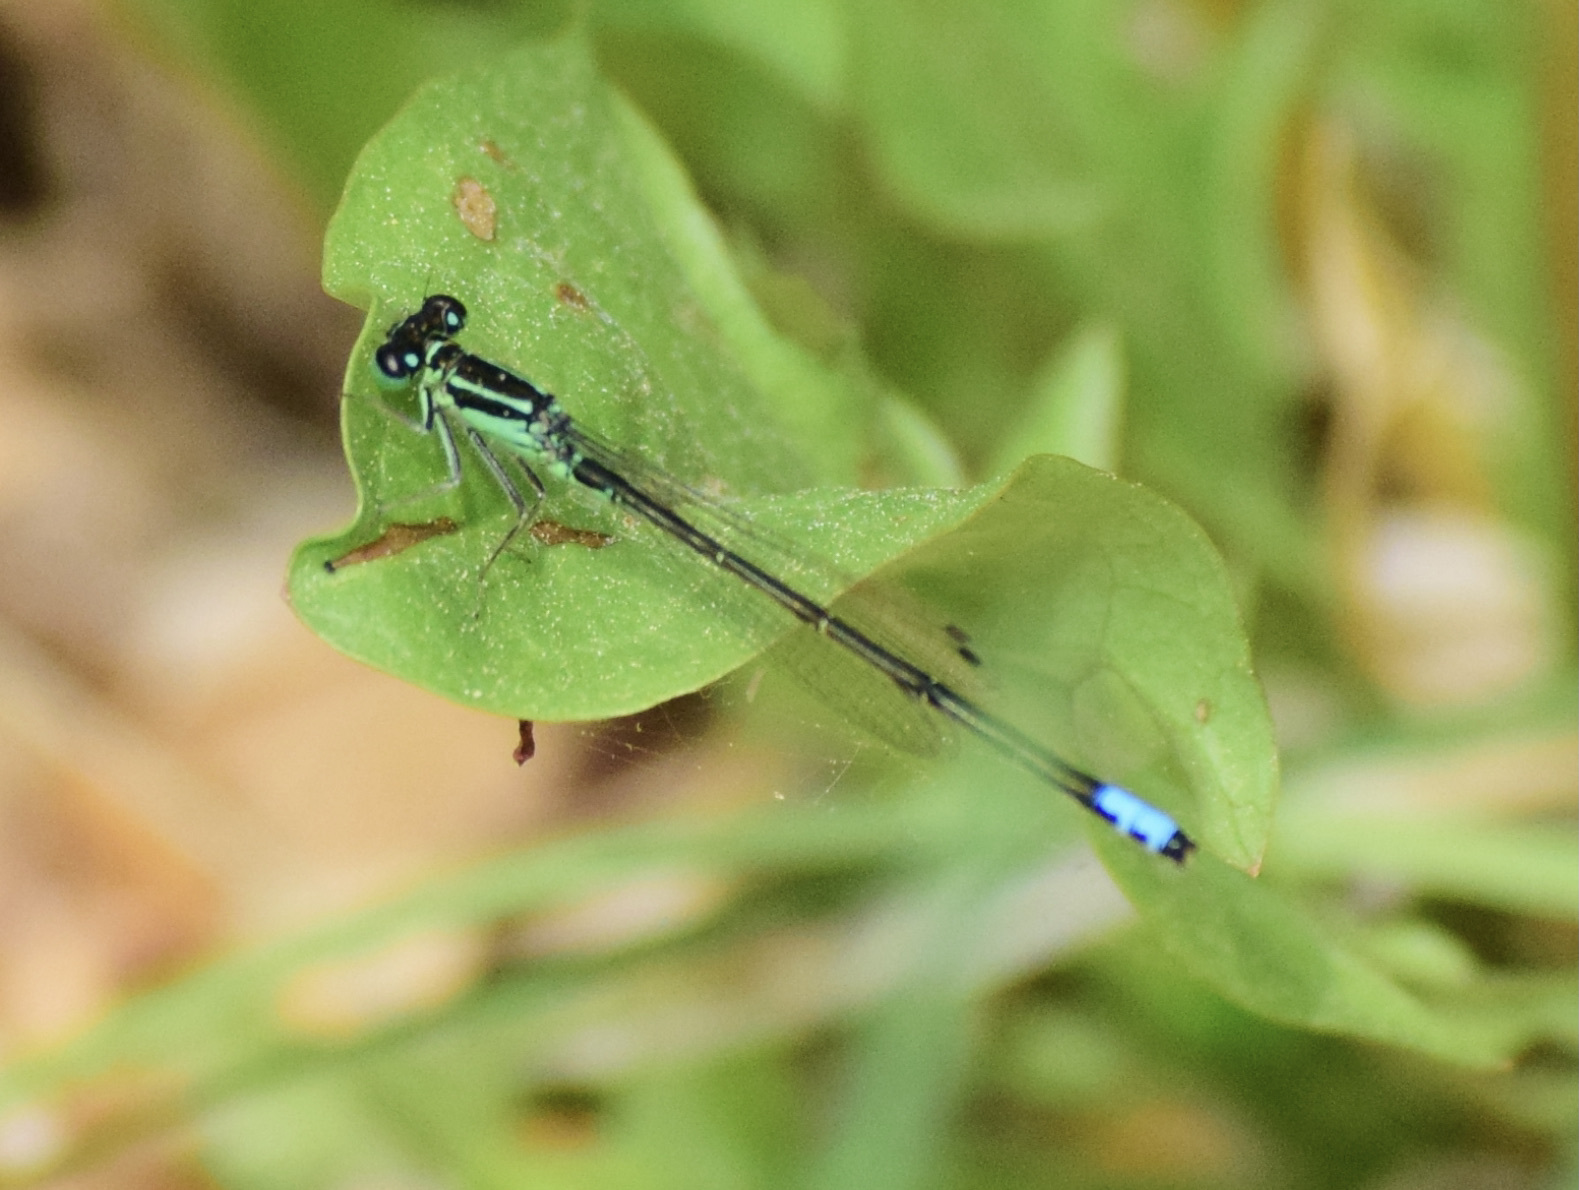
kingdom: Animalia
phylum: Arthropoda
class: Insecta
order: Odonata
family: Coenagrionidae
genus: Ischnura
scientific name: Ischnura verticalis
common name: Eastern forktail
